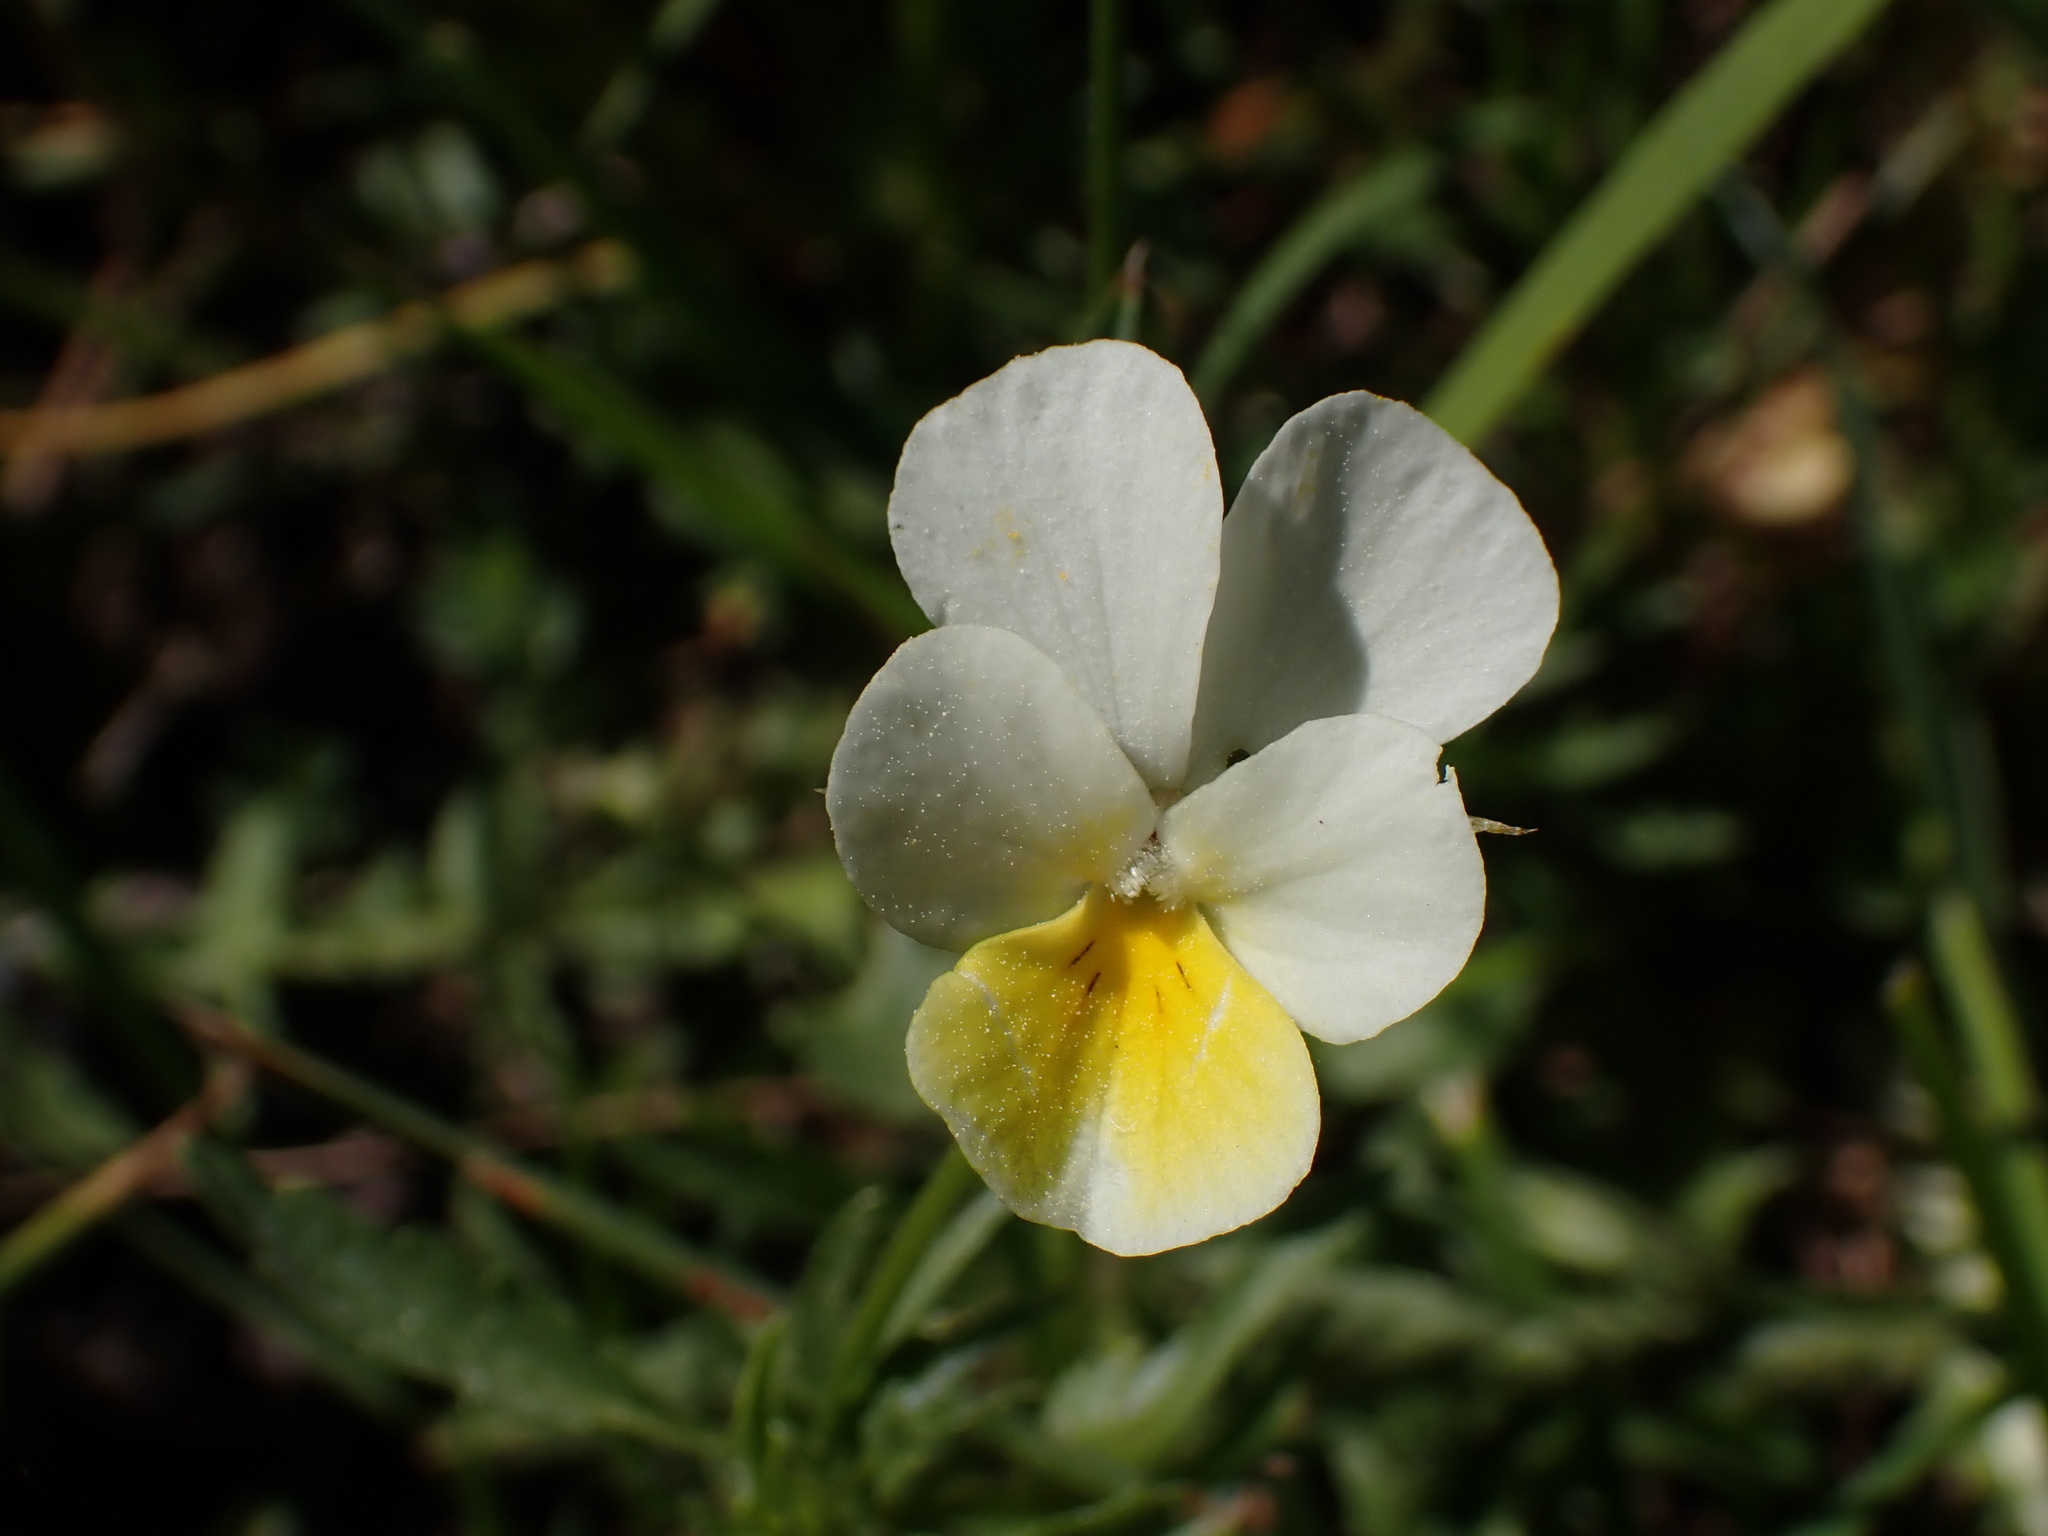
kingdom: Plantae
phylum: Tracheophyta
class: Magnoliopsida
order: Malpighiales
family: Violaceae
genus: Viola
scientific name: Viola arvensis
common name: Field pansy
